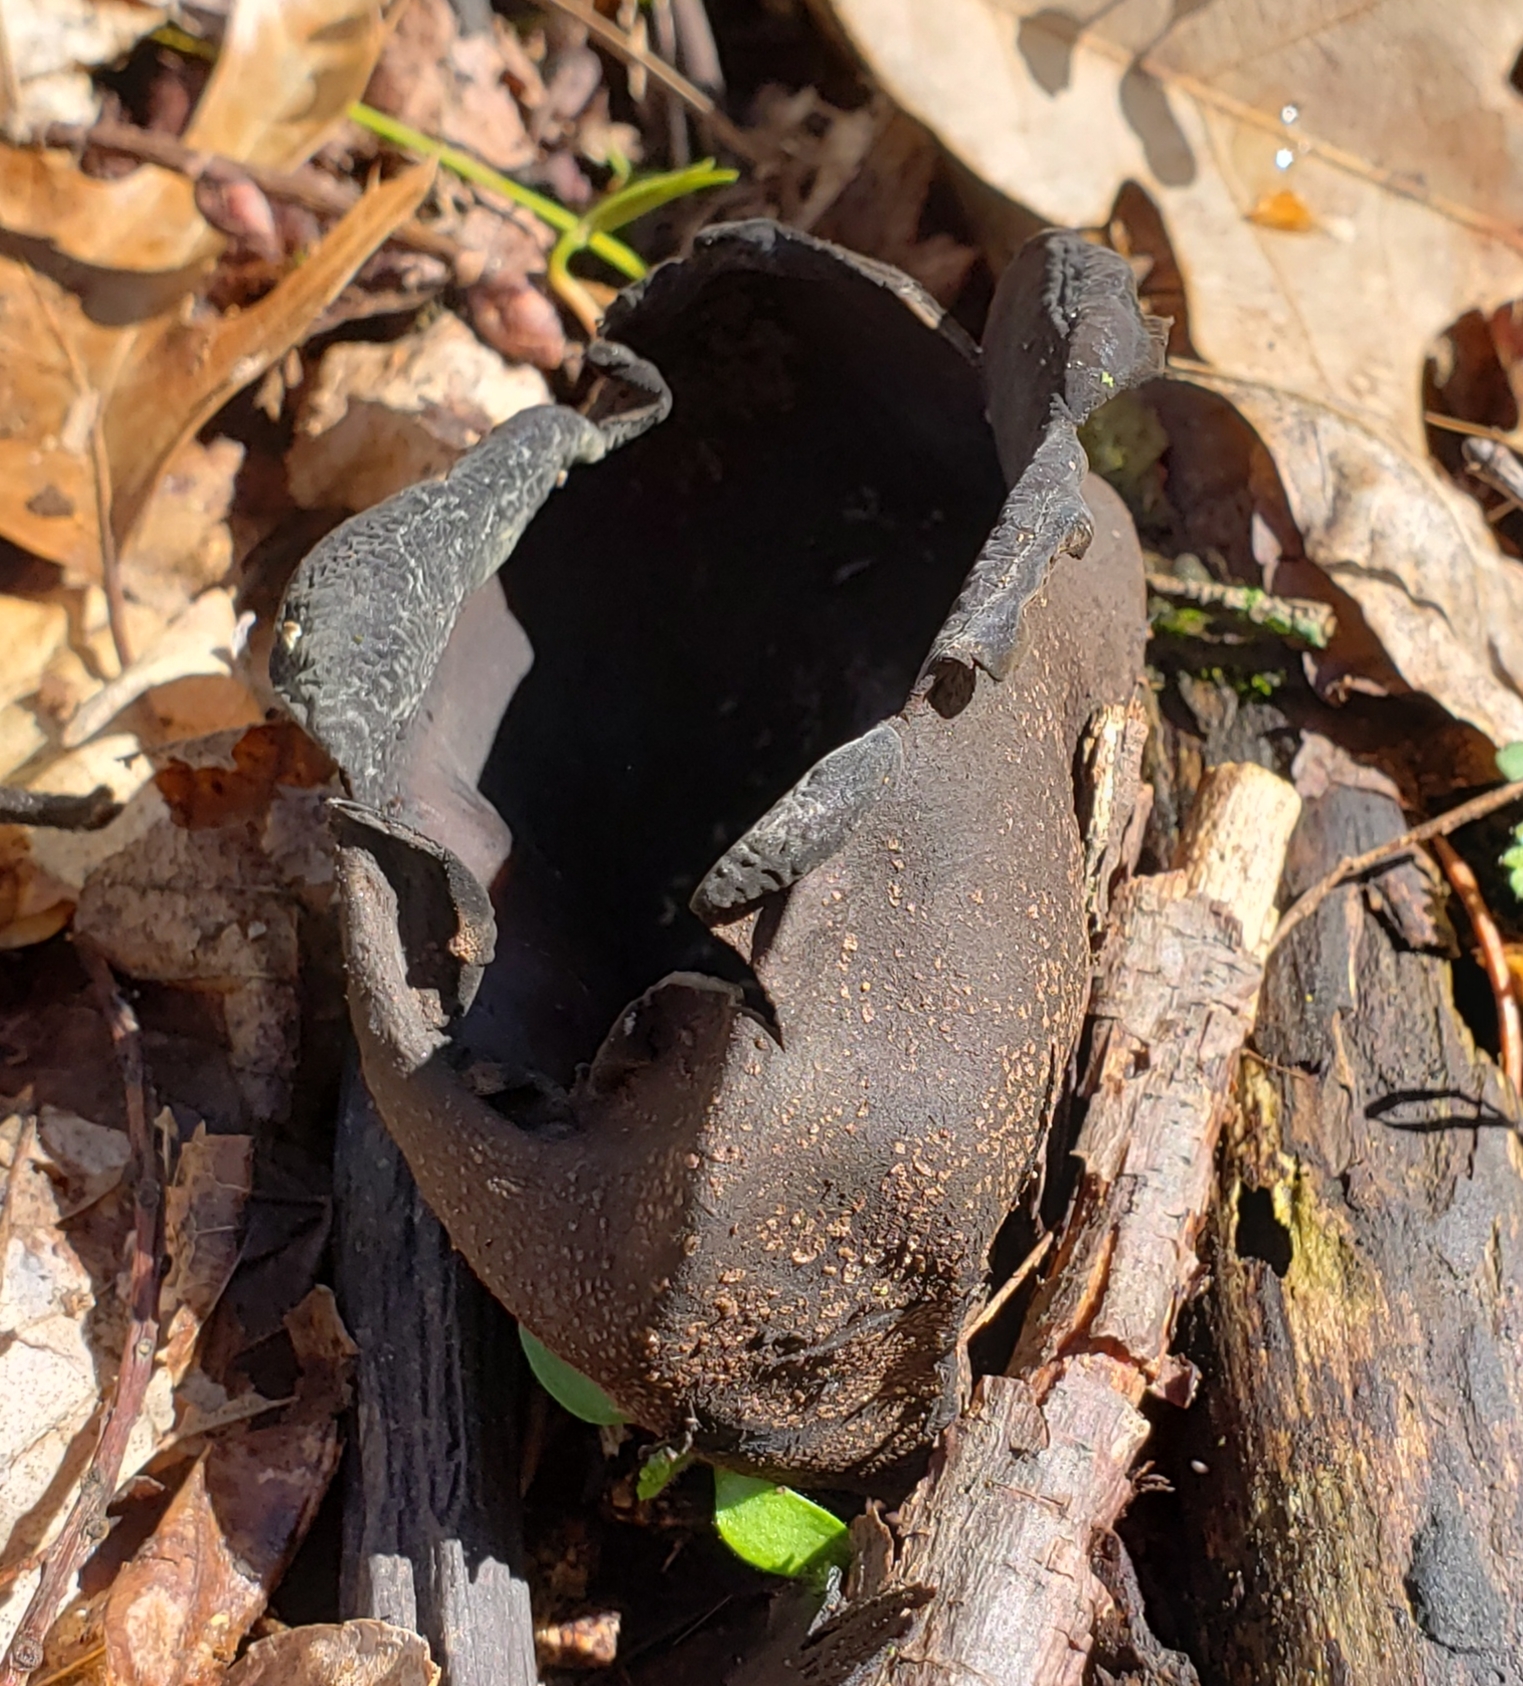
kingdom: Fungi
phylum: Ascomycota
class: Pezizomycetes
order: Pezizales
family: Sarcosomataceae
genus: Urnula
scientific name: Urnula craterium
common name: Devil's urn
